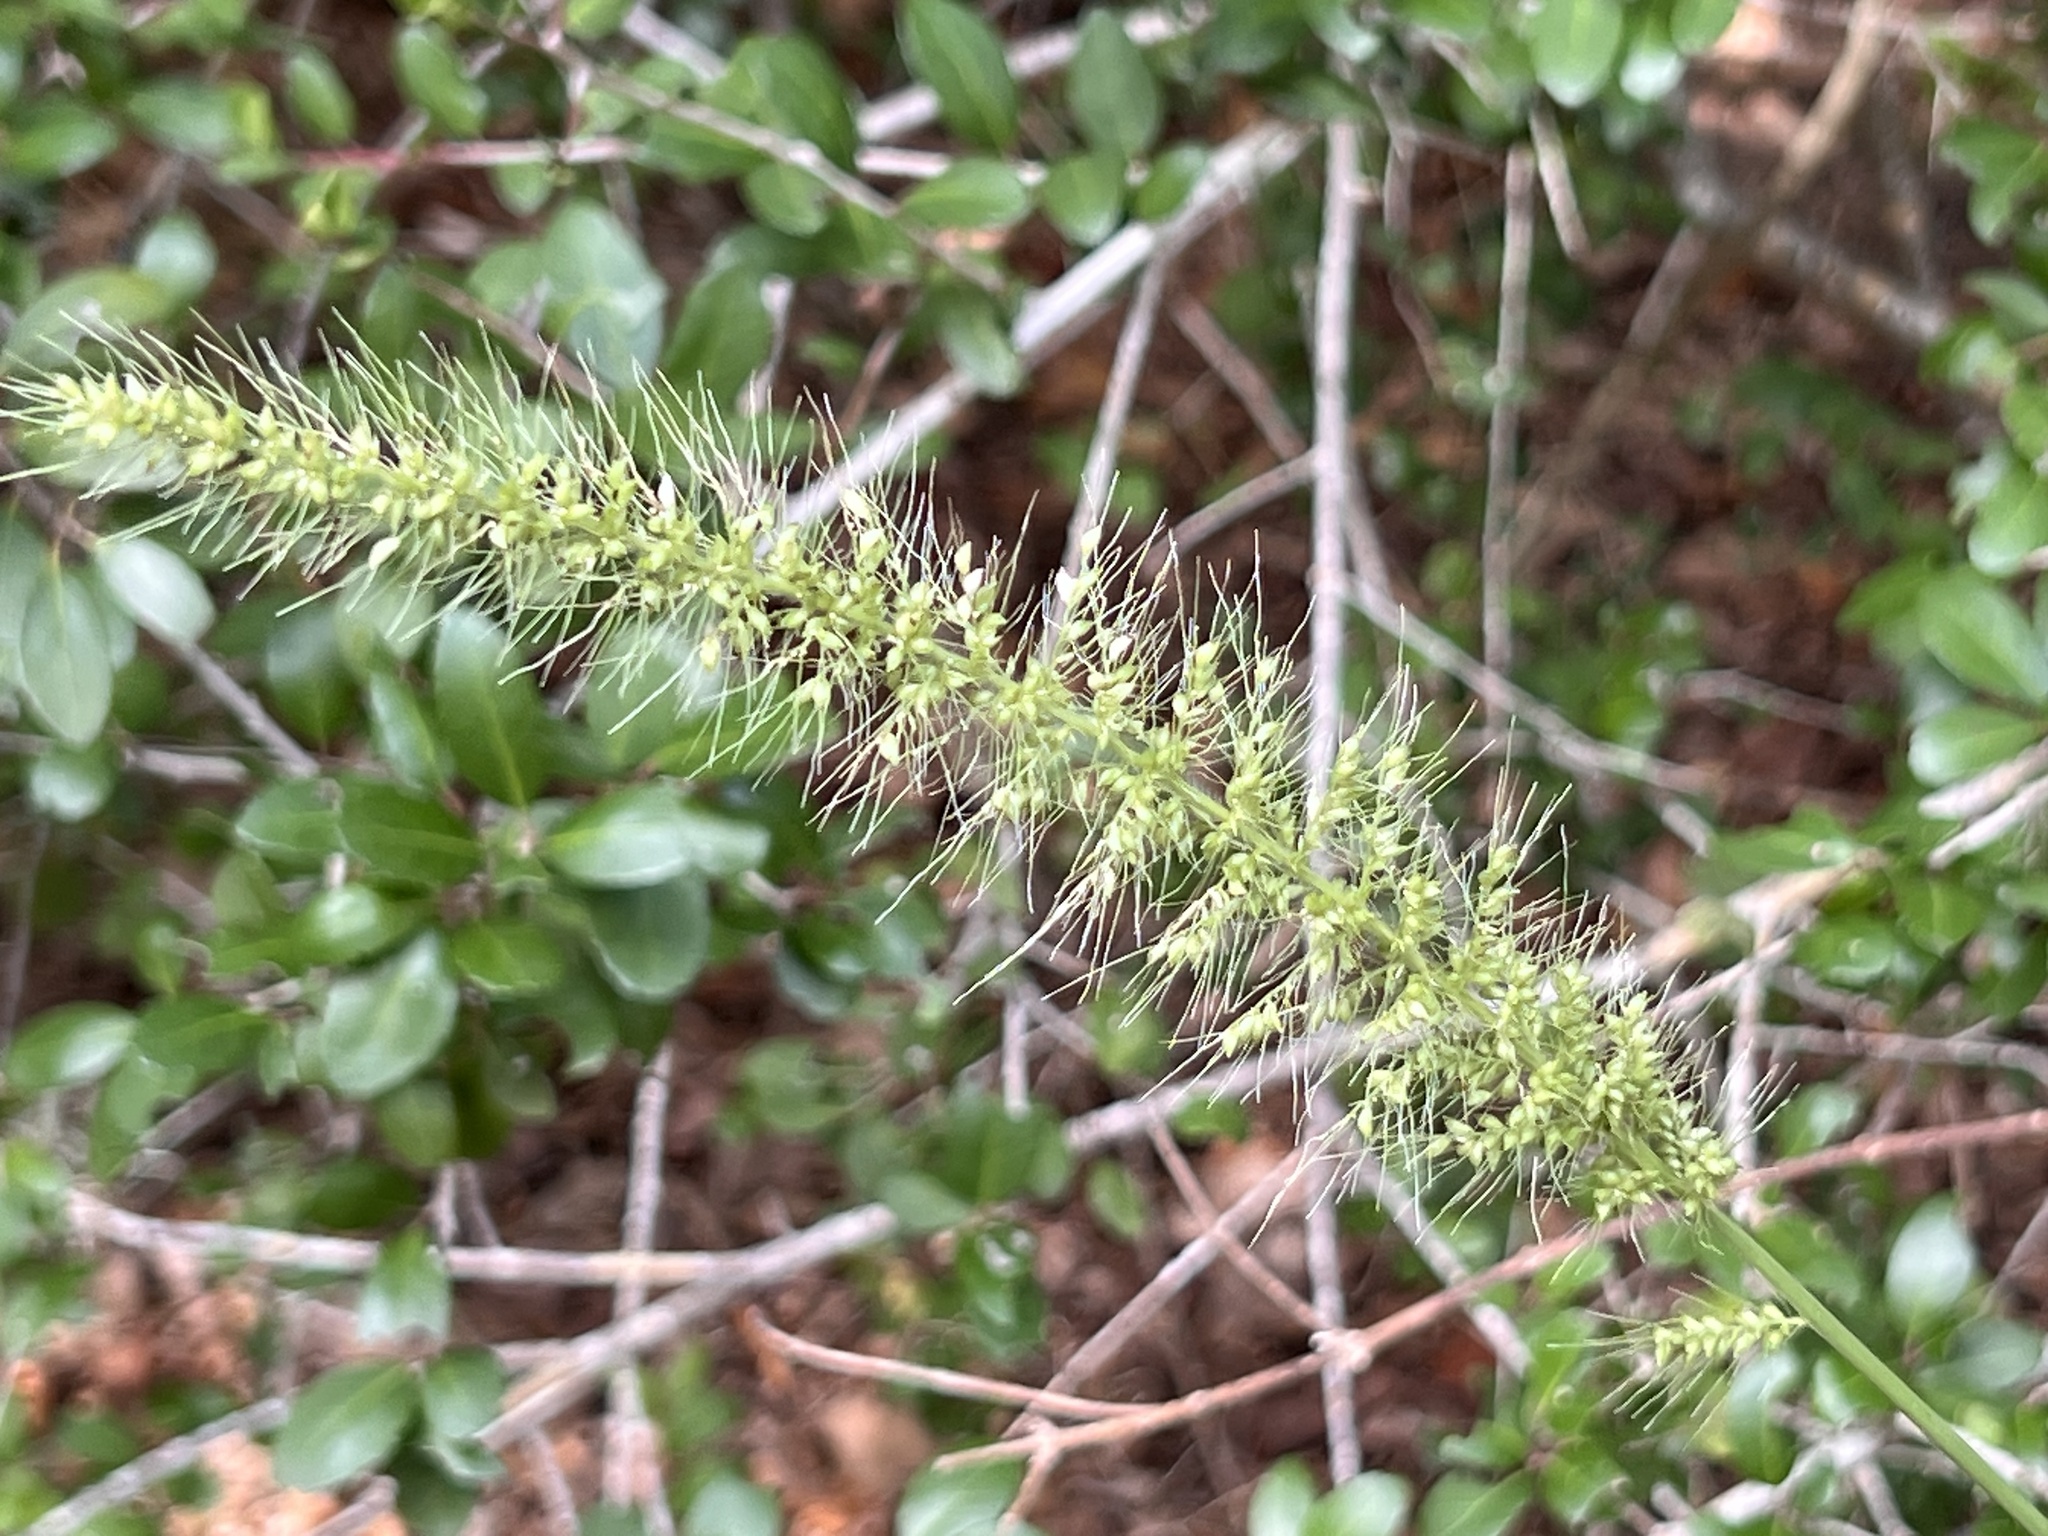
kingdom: Plantae
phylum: Tracheophyta
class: Liliopsida
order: Poales
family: Poaceae
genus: Setaria
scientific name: Setaria scheelei
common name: Southwestern bristle grass
